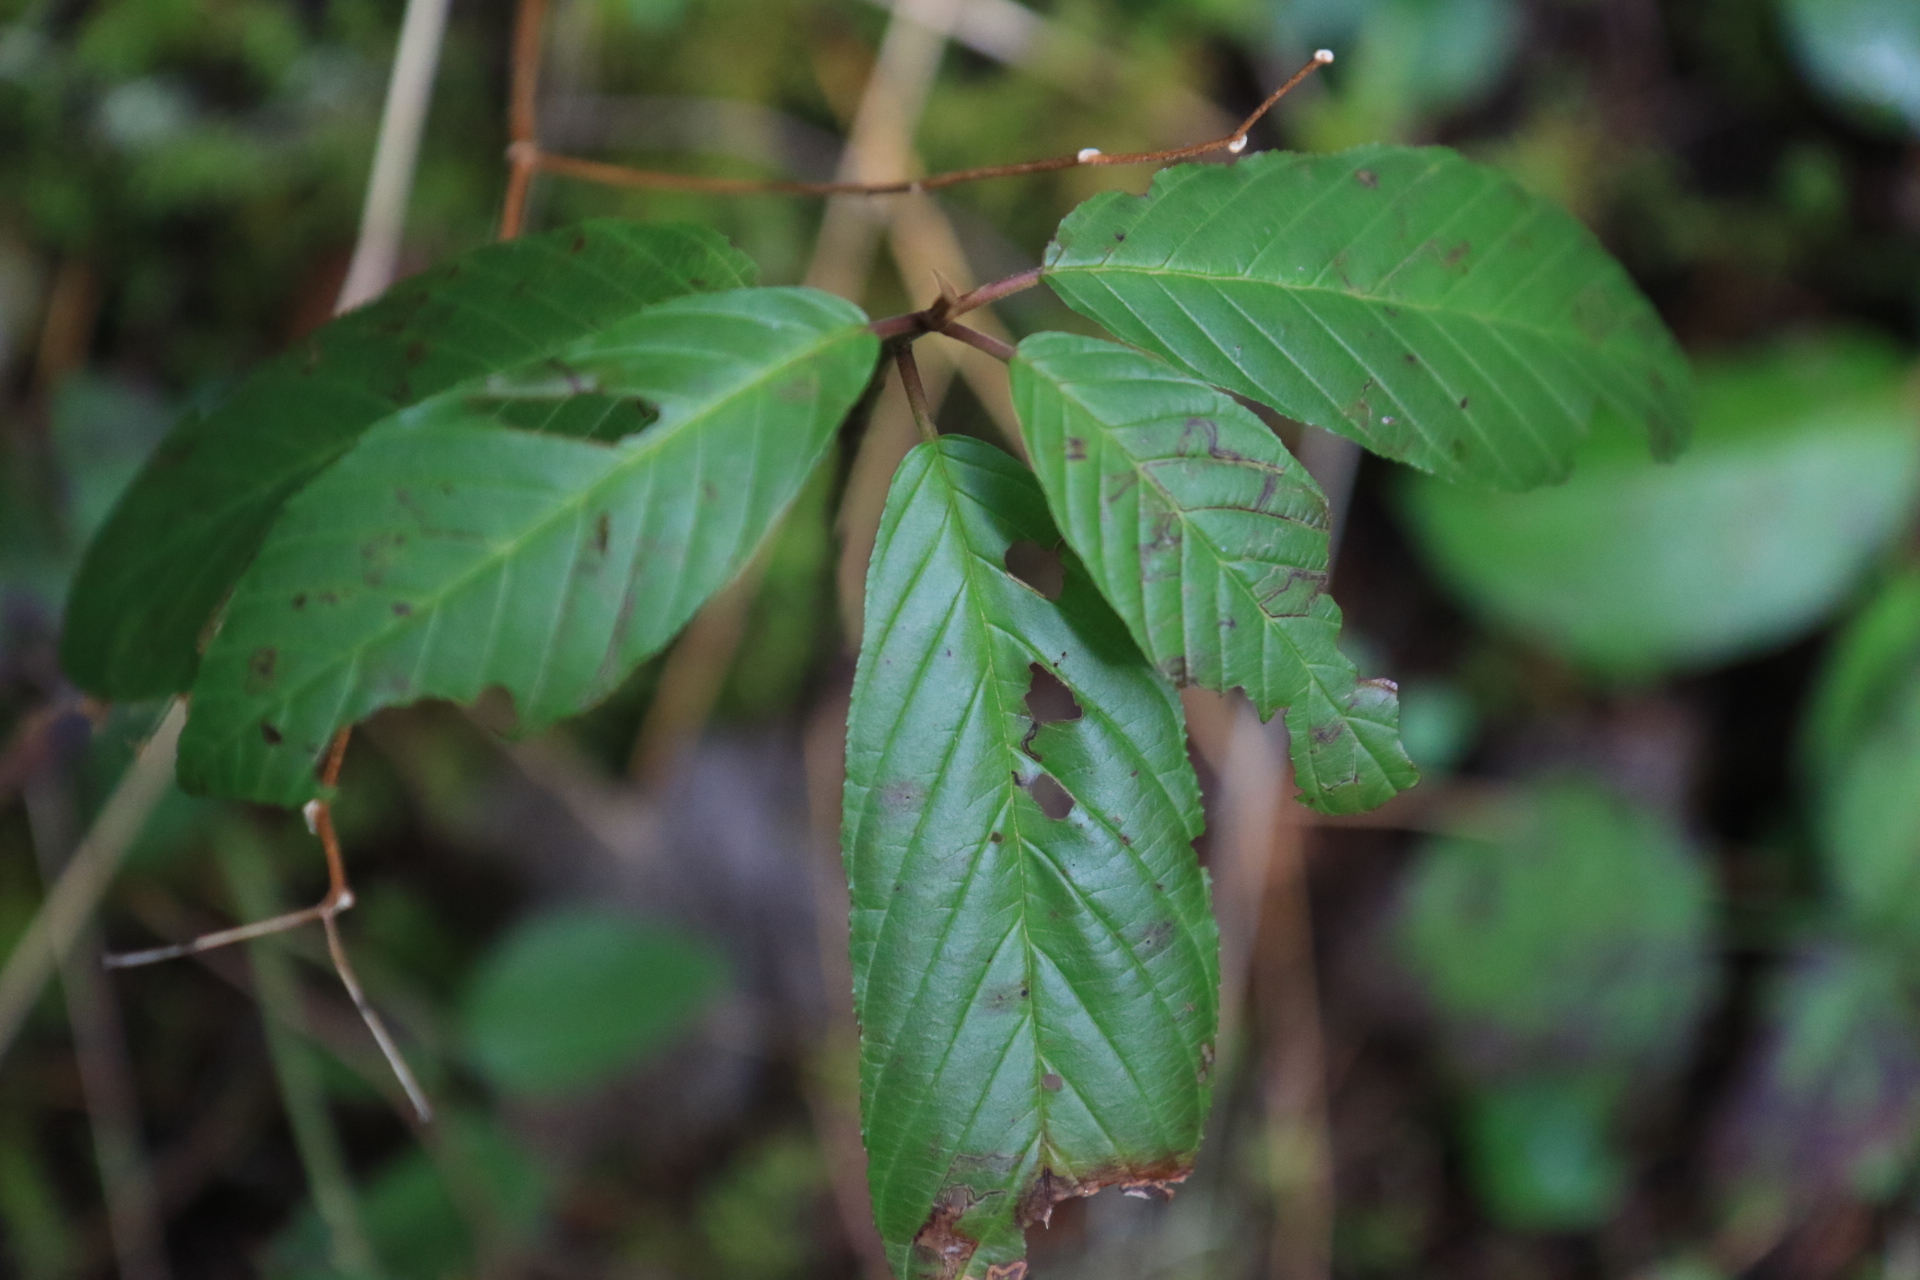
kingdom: Plantae
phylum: Tracheophyta
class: Magnoliopsida
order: Rosales
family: Rhamnaceae
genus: Frangula
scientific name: Frangula purshiana
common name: Cascara buckthorn
